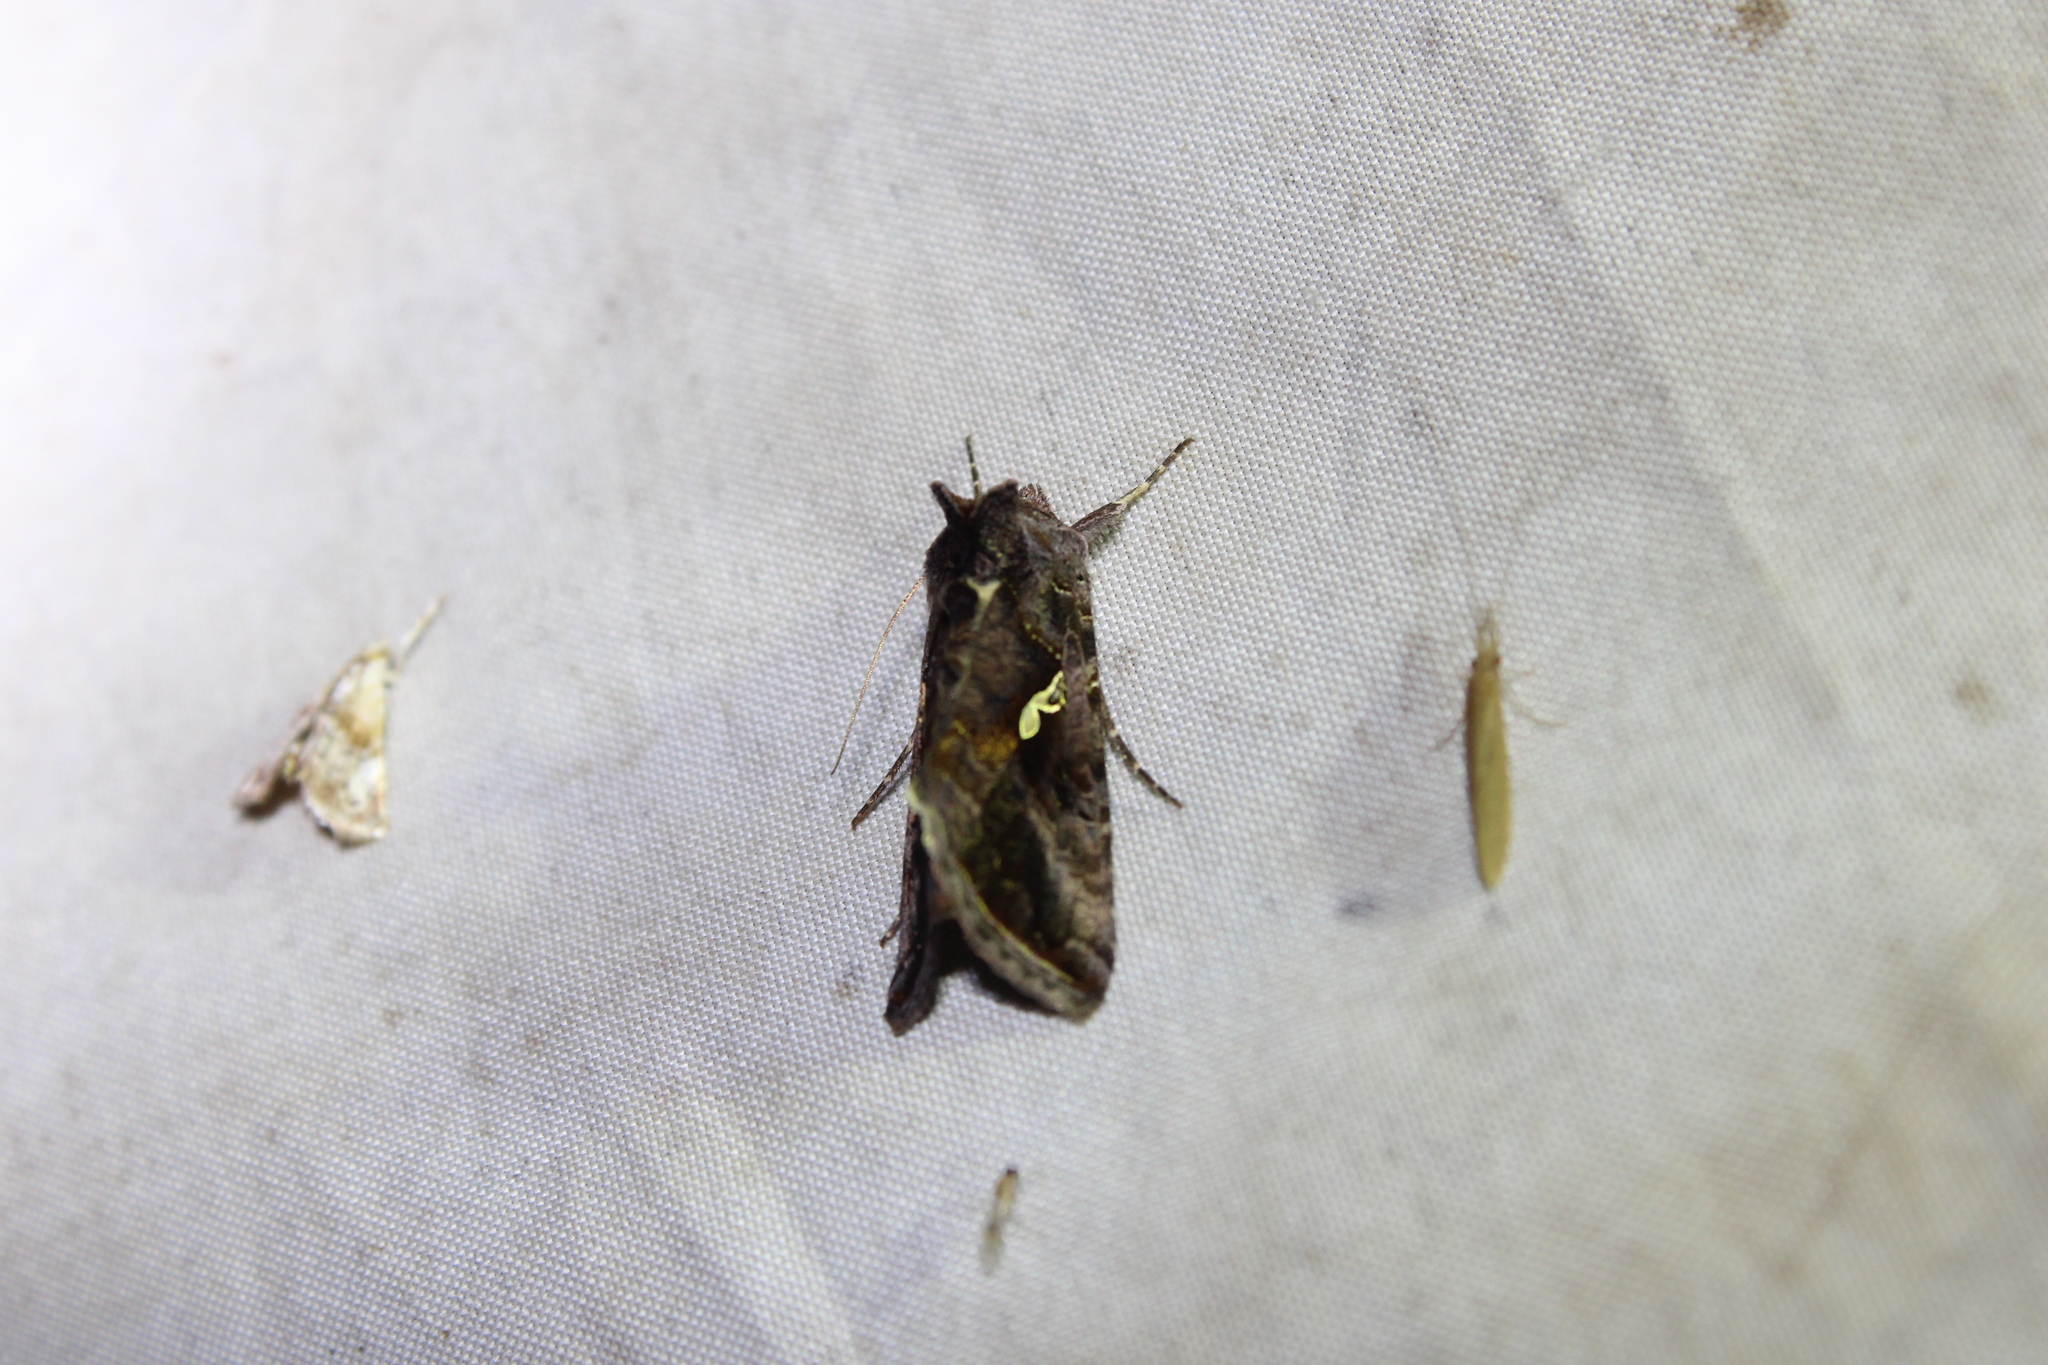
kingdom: Animalia
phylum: Arthropoda
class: Insecta
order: Lepidoptera
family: Noctuidae
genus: Autographa
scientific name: Autographa precationis
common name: Common looper moth
